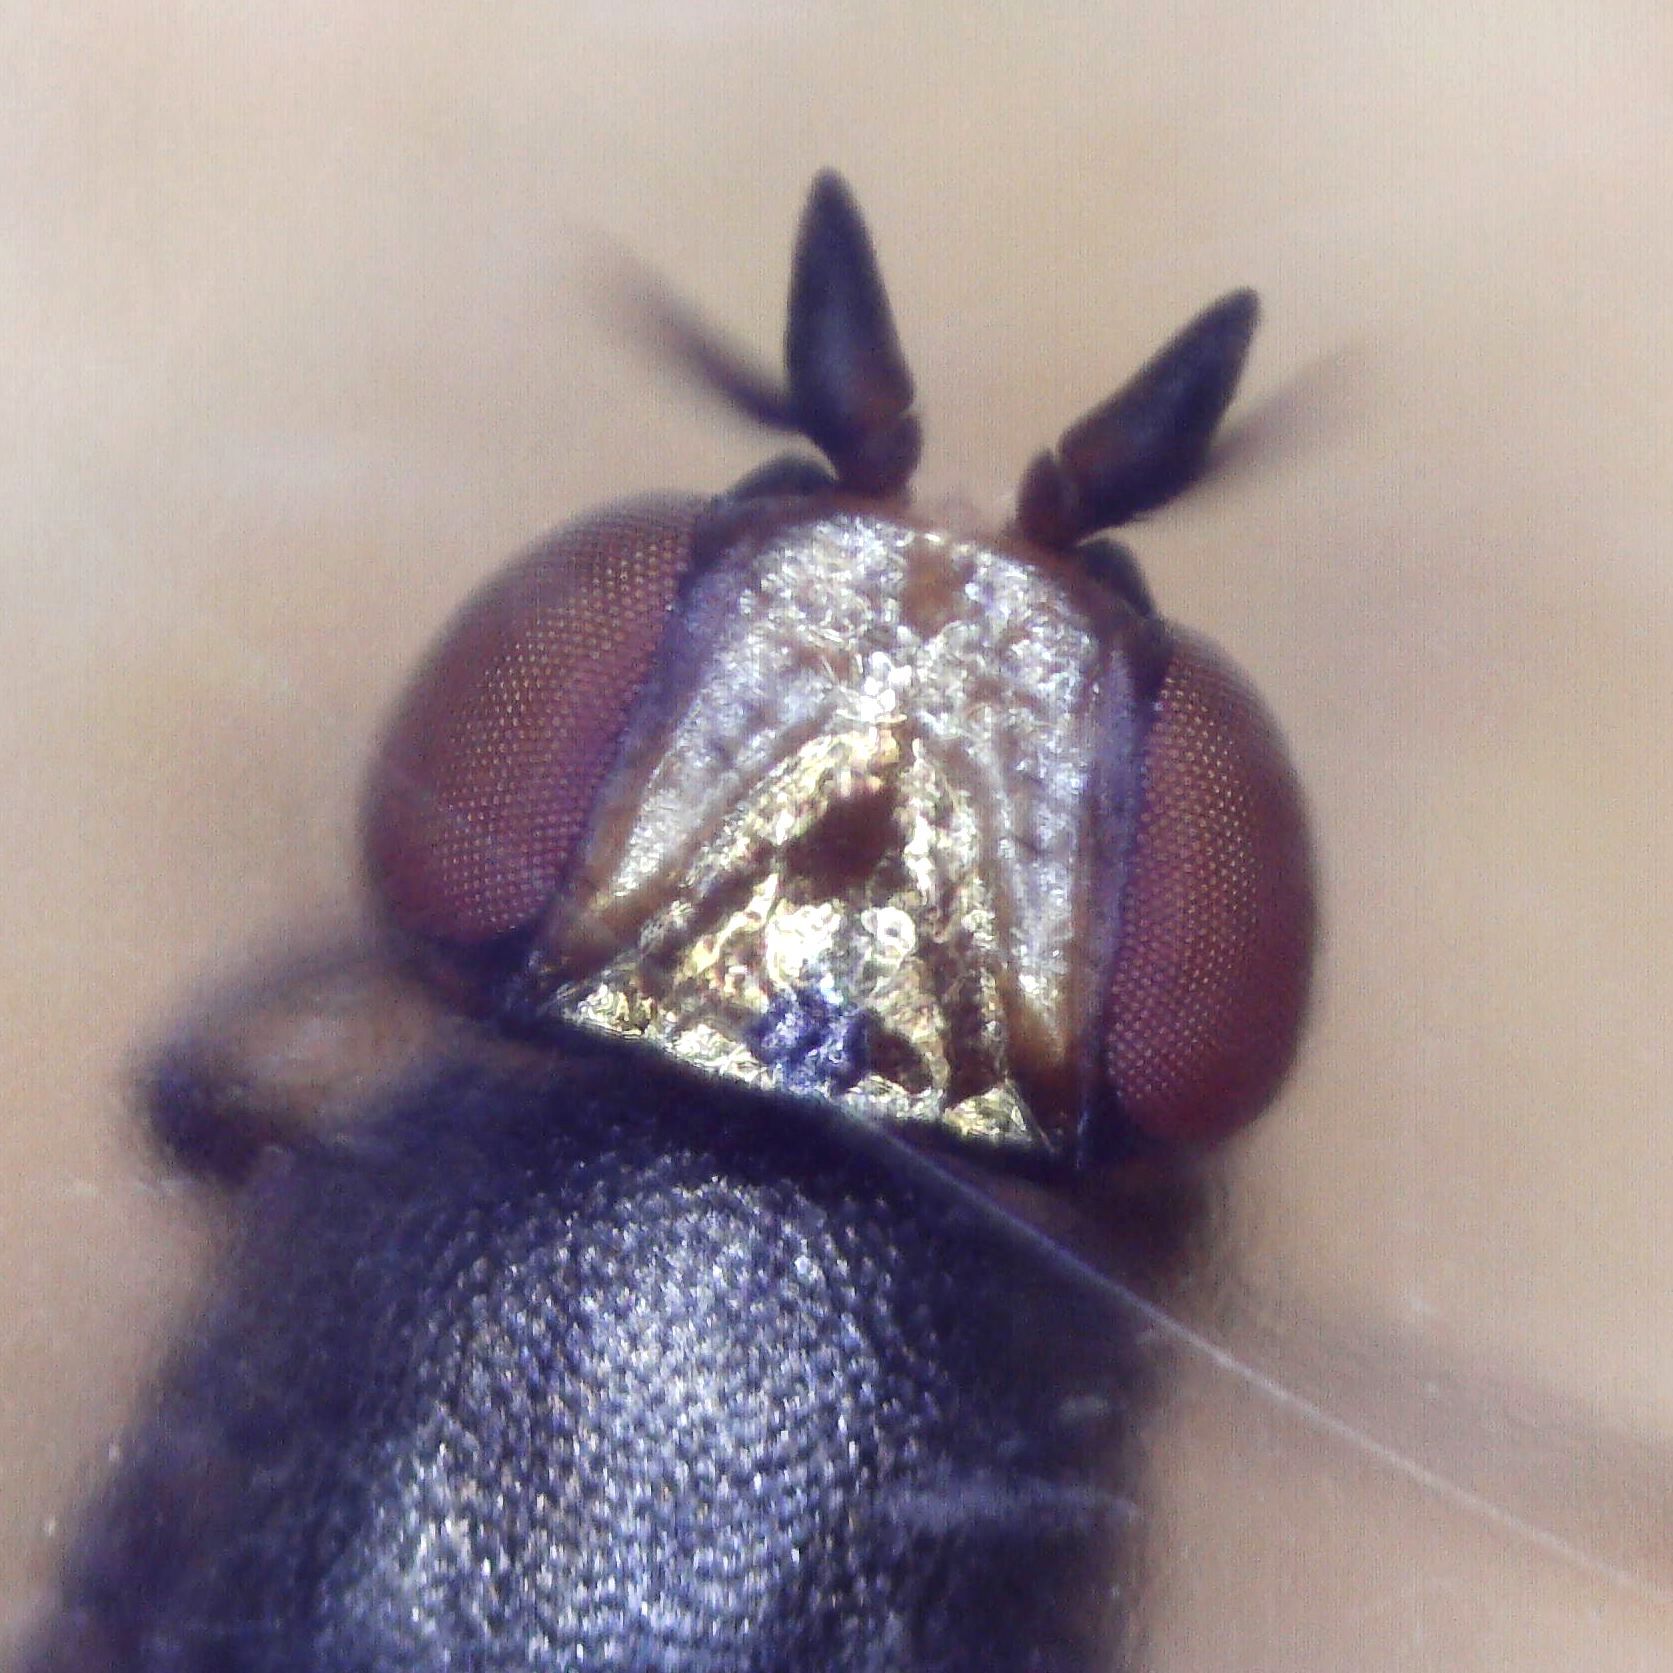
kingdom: Animalia
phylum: Arthropoda
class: Insecta
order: Diptera
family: Chloropidae
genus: Camarota
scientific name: Camarota curvipennis
